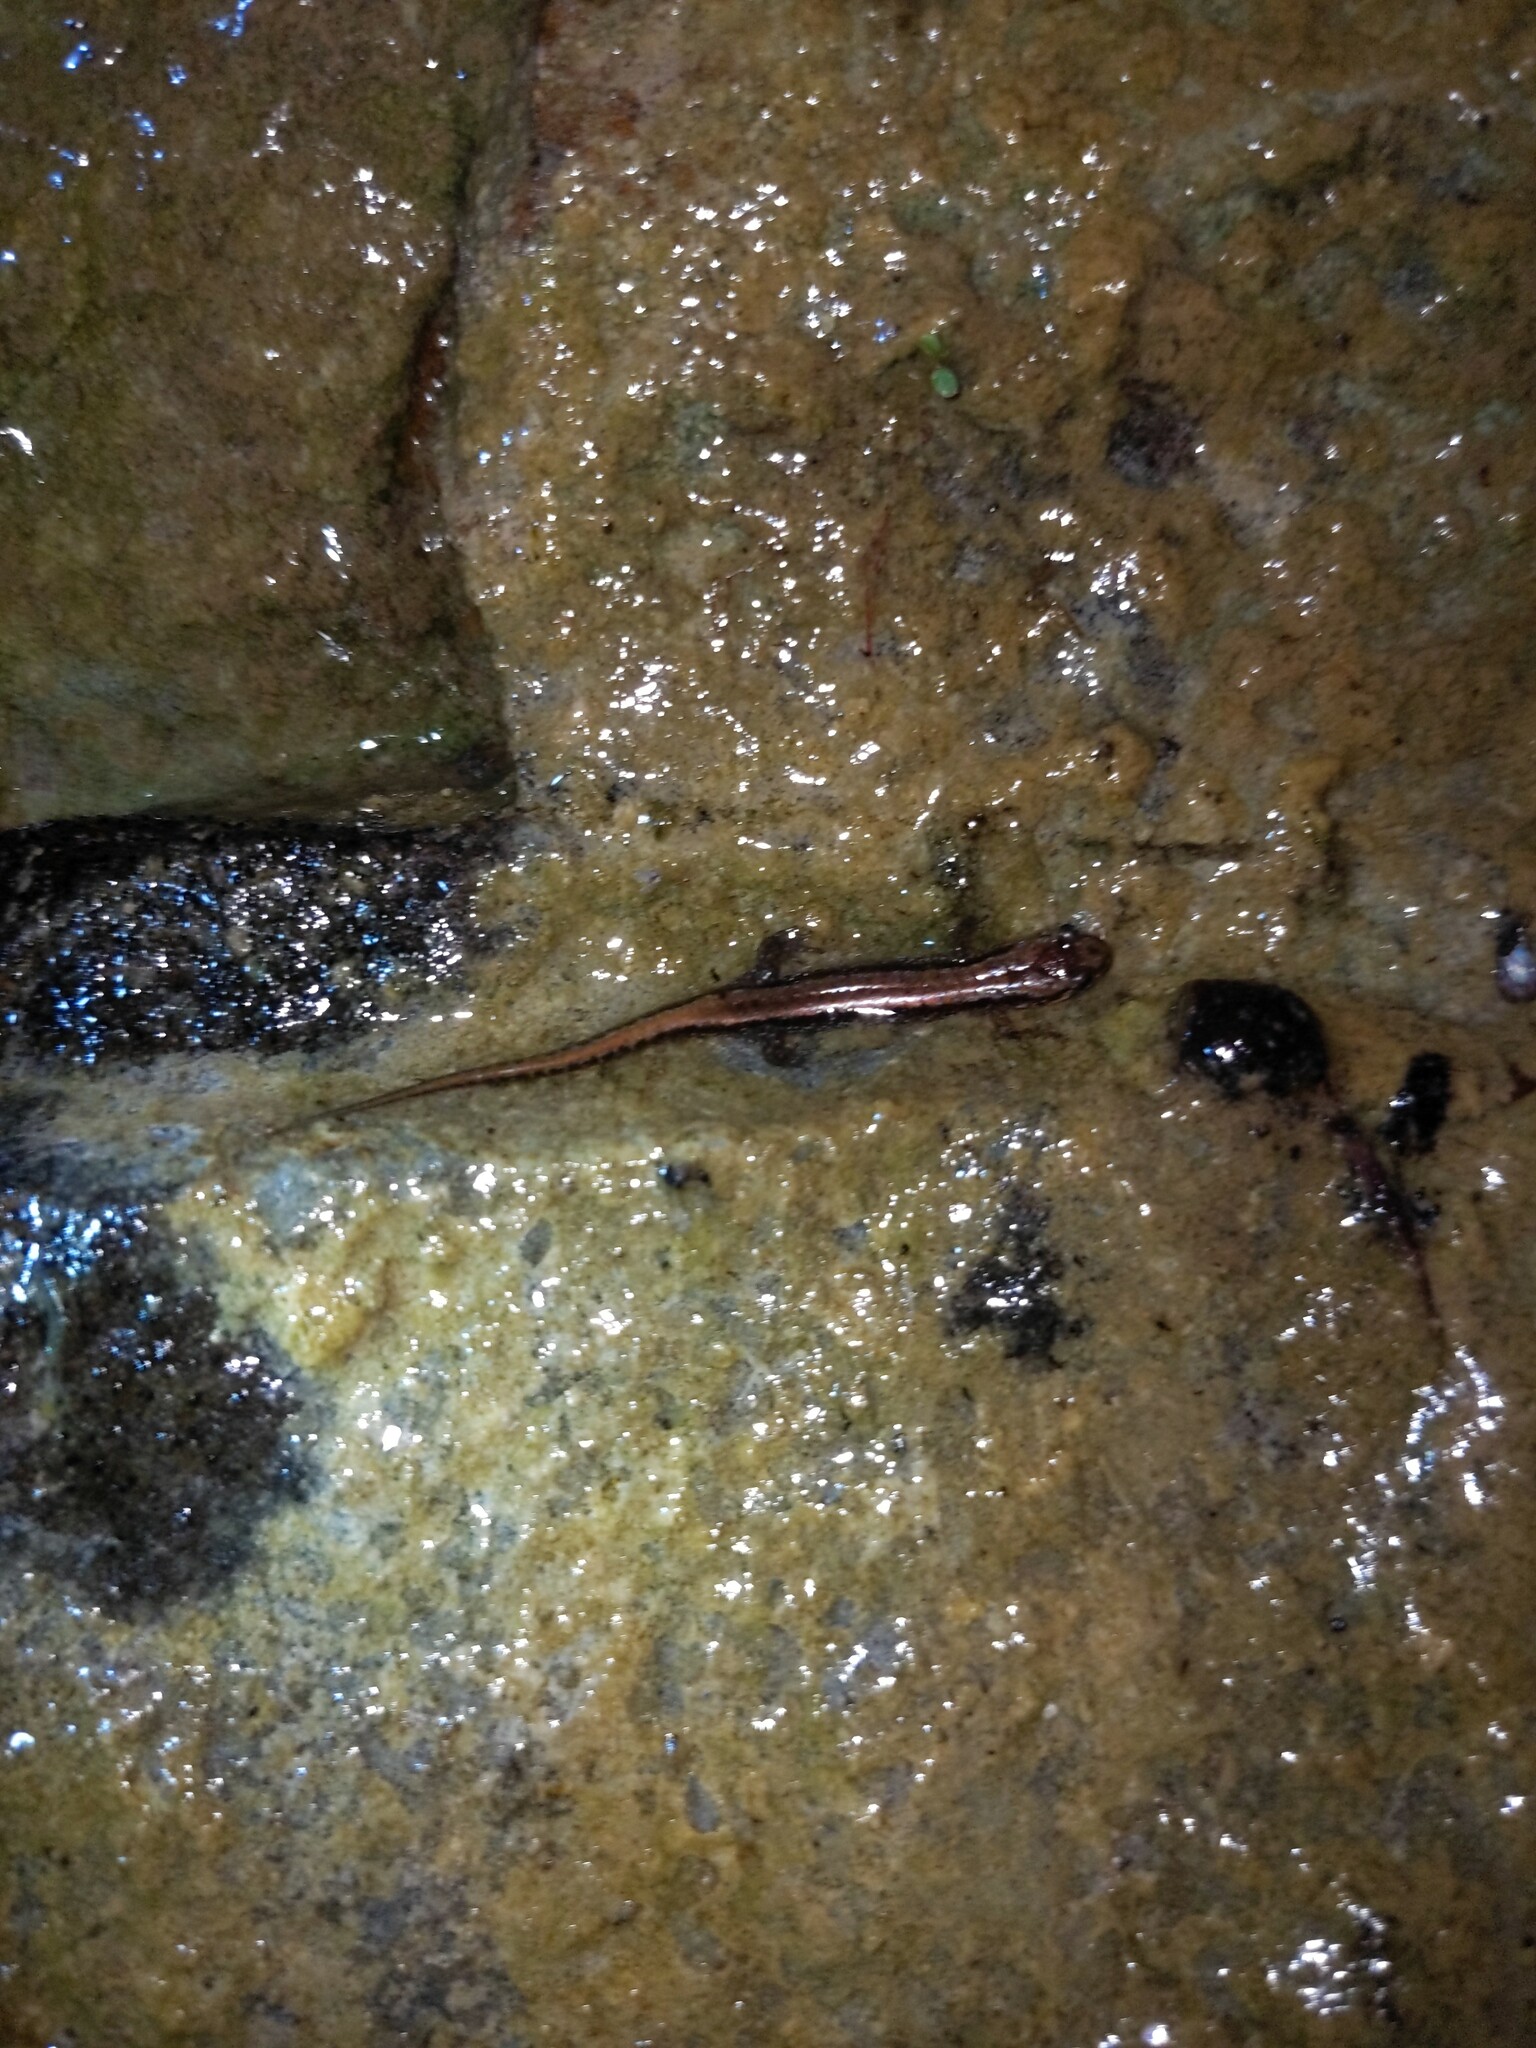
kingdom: Animalia
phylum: Chordata
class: Amphibia
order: Caudata
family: Plethodontidae
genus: Desmognathus
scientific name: Desmognathus ochrophaeus
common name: Allegheny mountain dusky salamander
